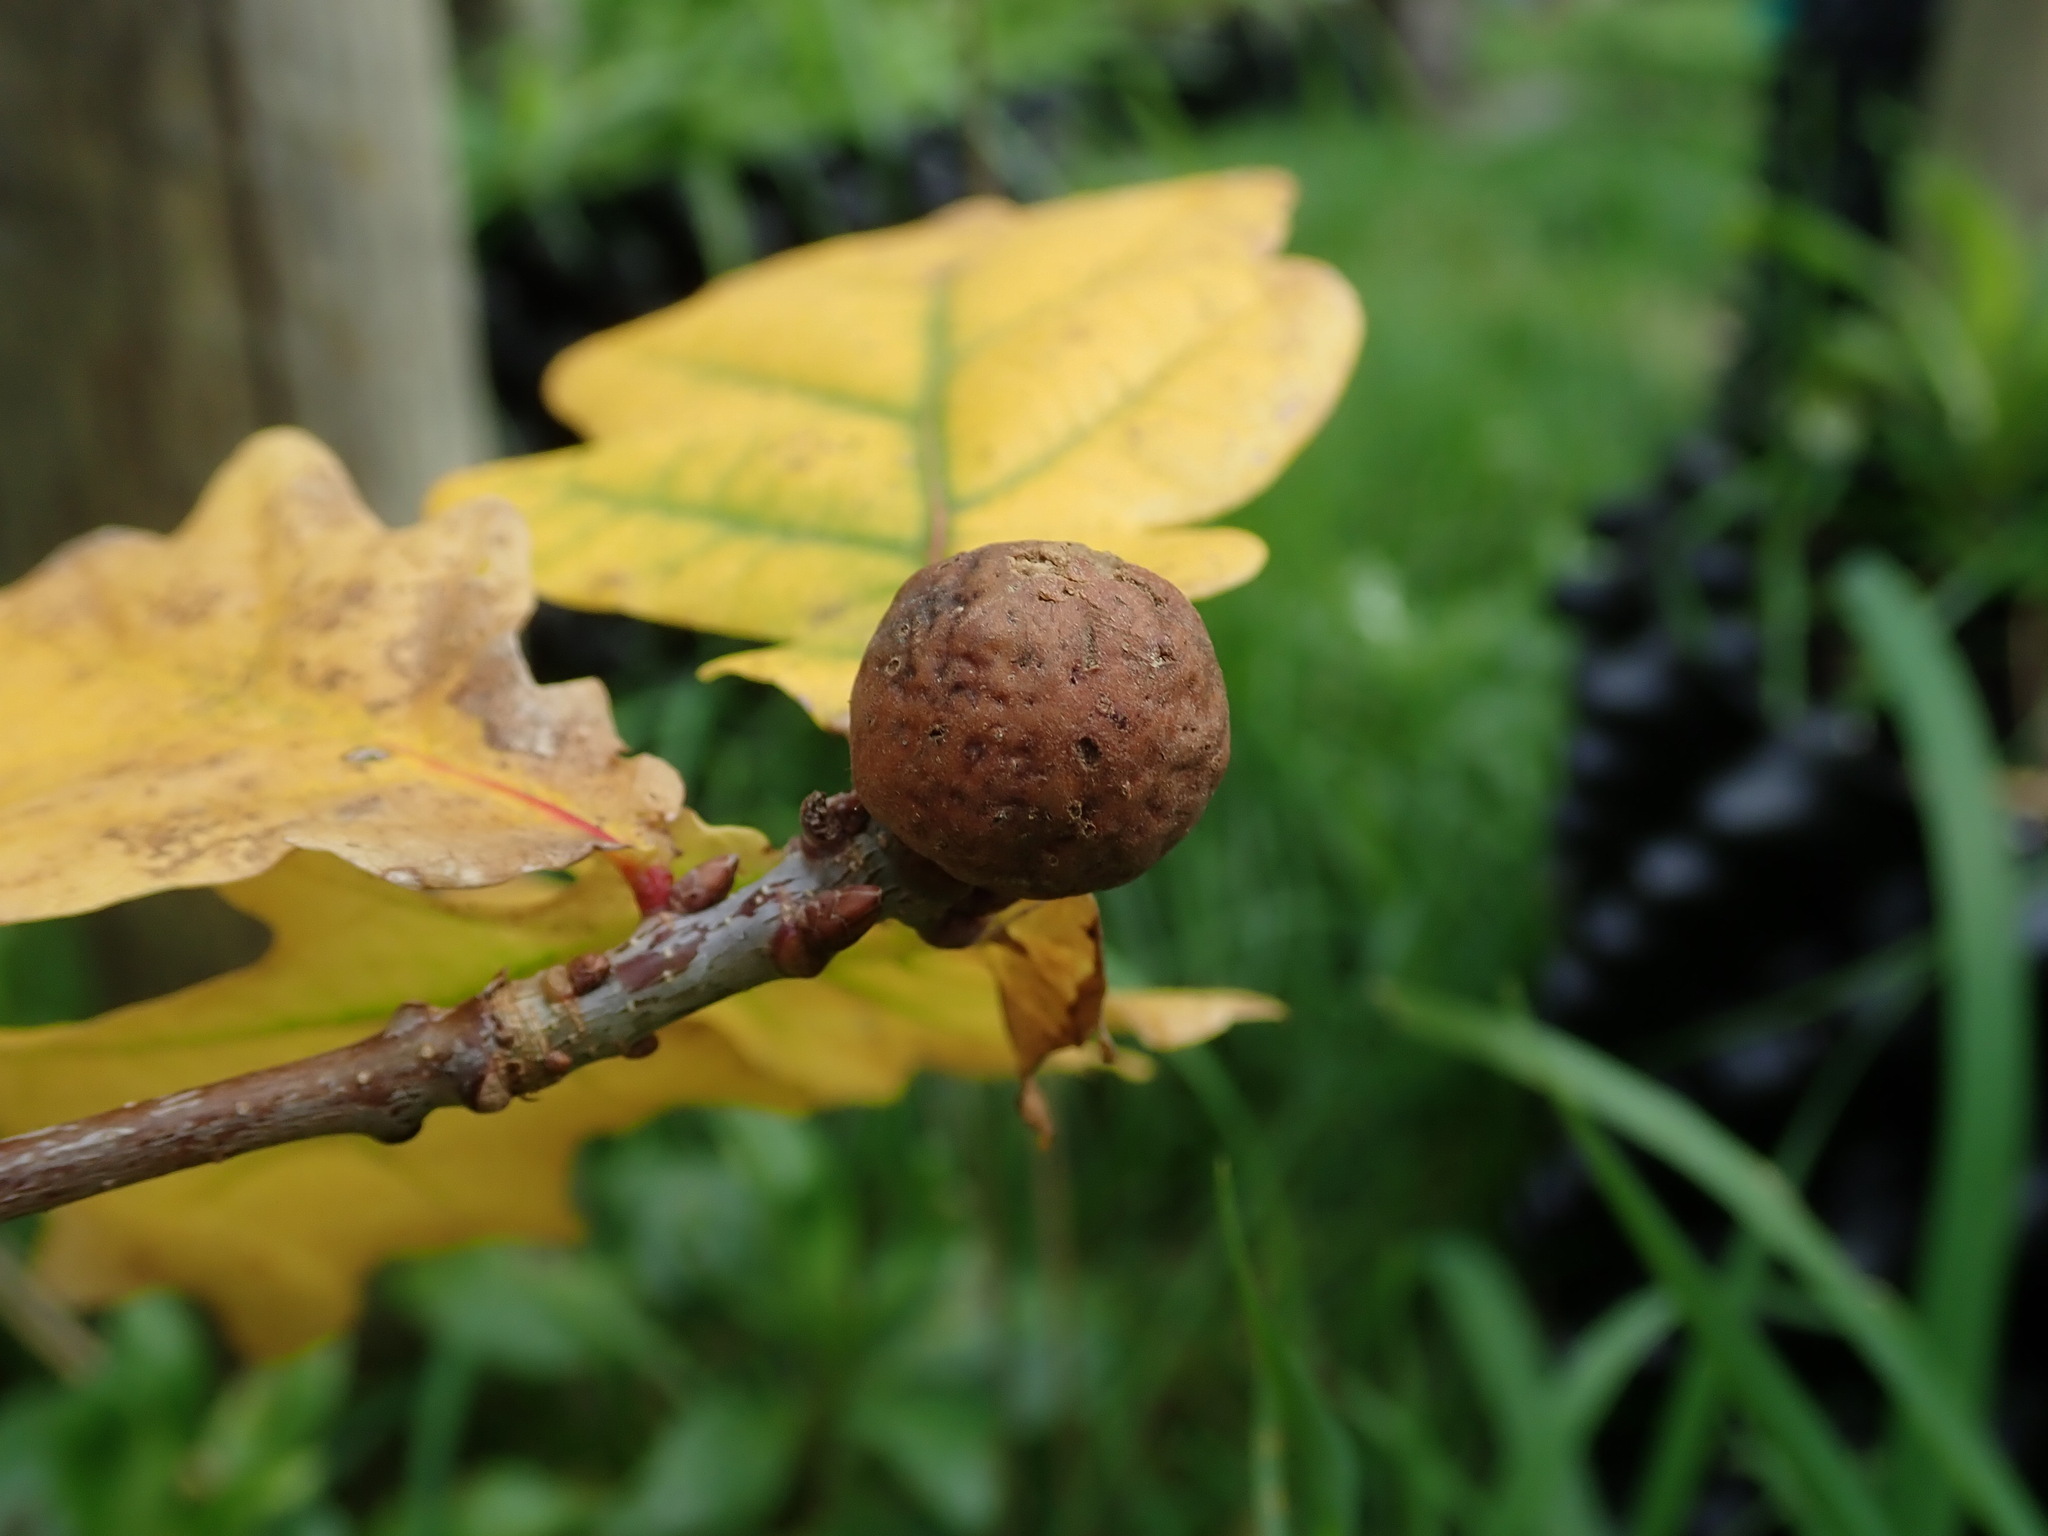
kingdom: Animalia
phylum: Arthropoda
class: Insecta
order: Hymenoptera
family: Cynipidae
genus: Andricus
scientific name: Andricus kollari
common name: Marble gall
